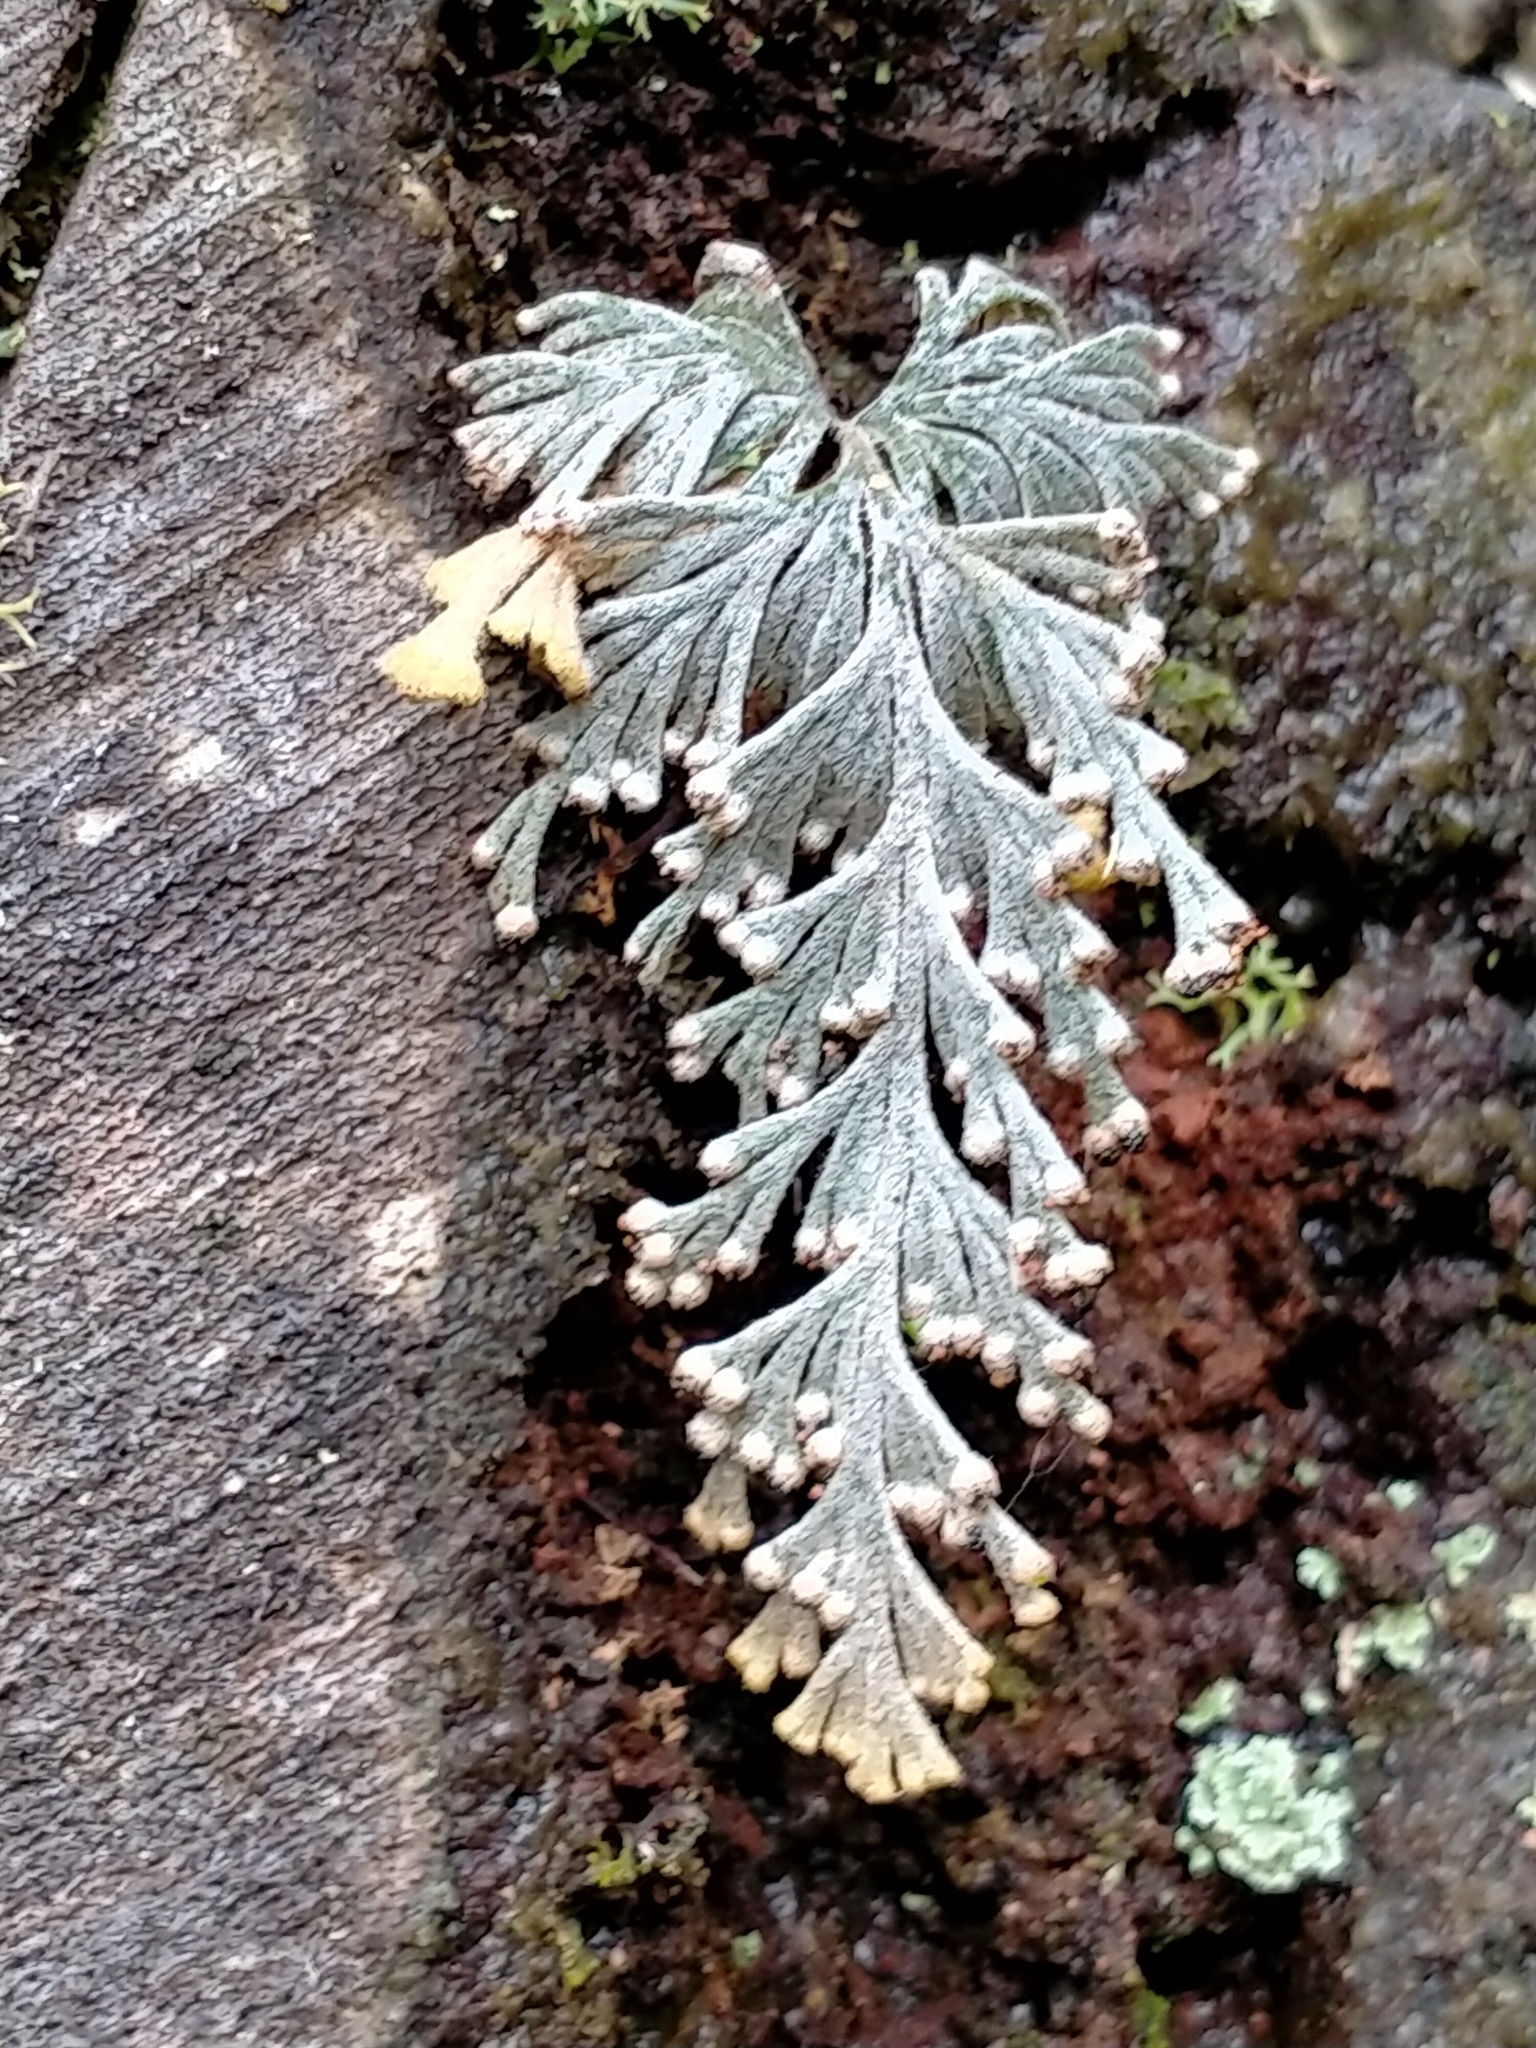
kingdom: Plantae
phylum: Tracheophyta
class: Polypodiopsida
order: Hymenophyllales
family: Hymenophyllaceae
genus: Hymenophyllum
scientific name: Hymenophyllum malingii
